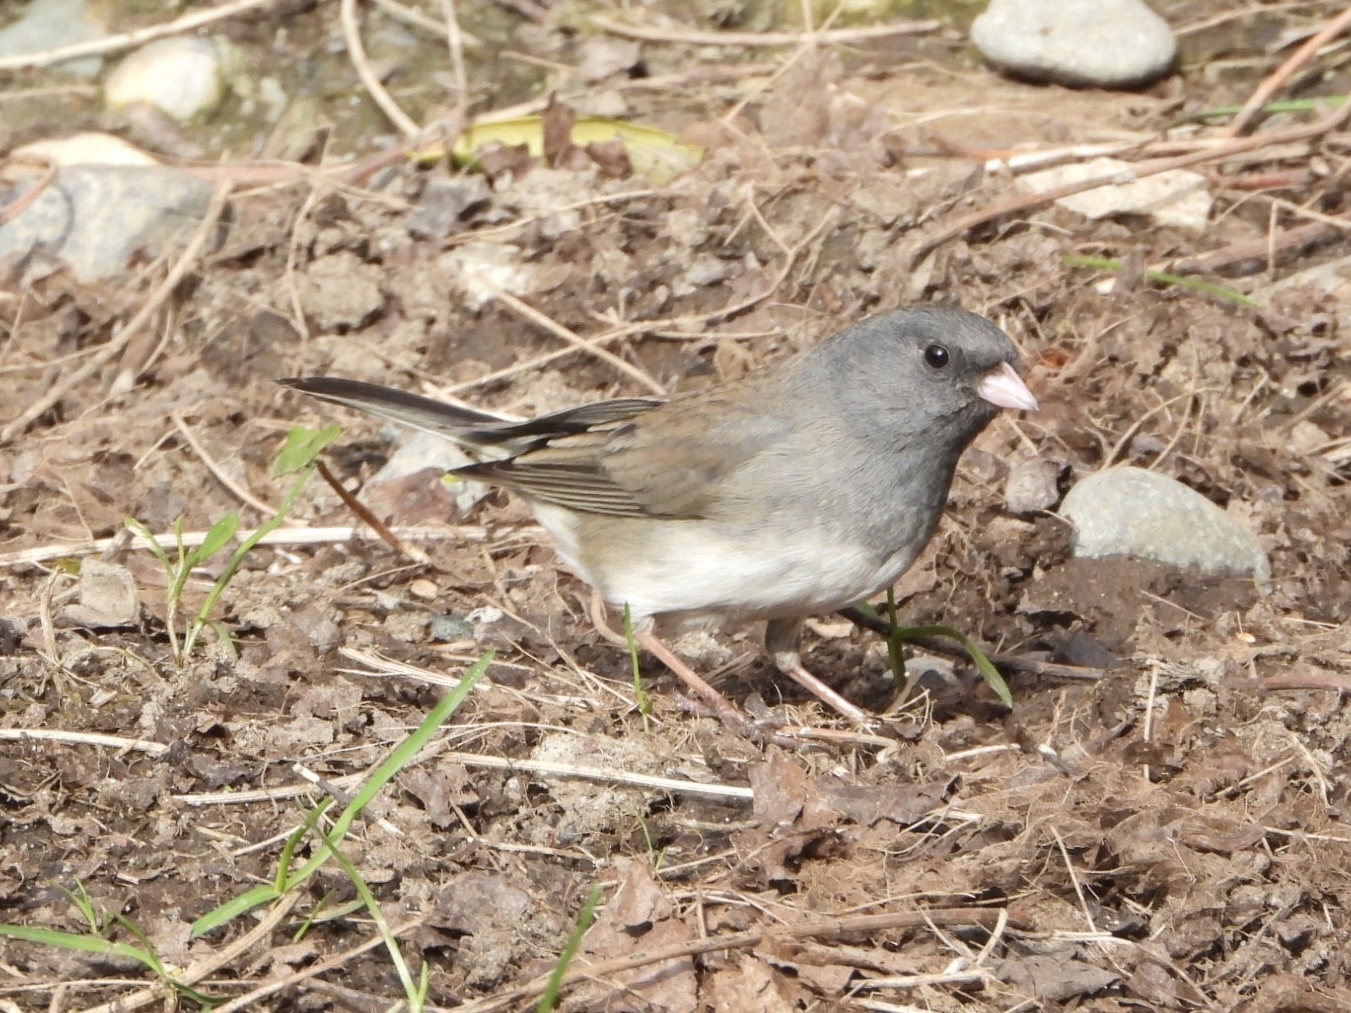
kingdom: Animalia
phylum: Chordata
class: Aves
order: Passeriformes
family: Passerellidae
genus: Junco
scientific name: Junco hyemalis
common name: Dark-eyed junco
